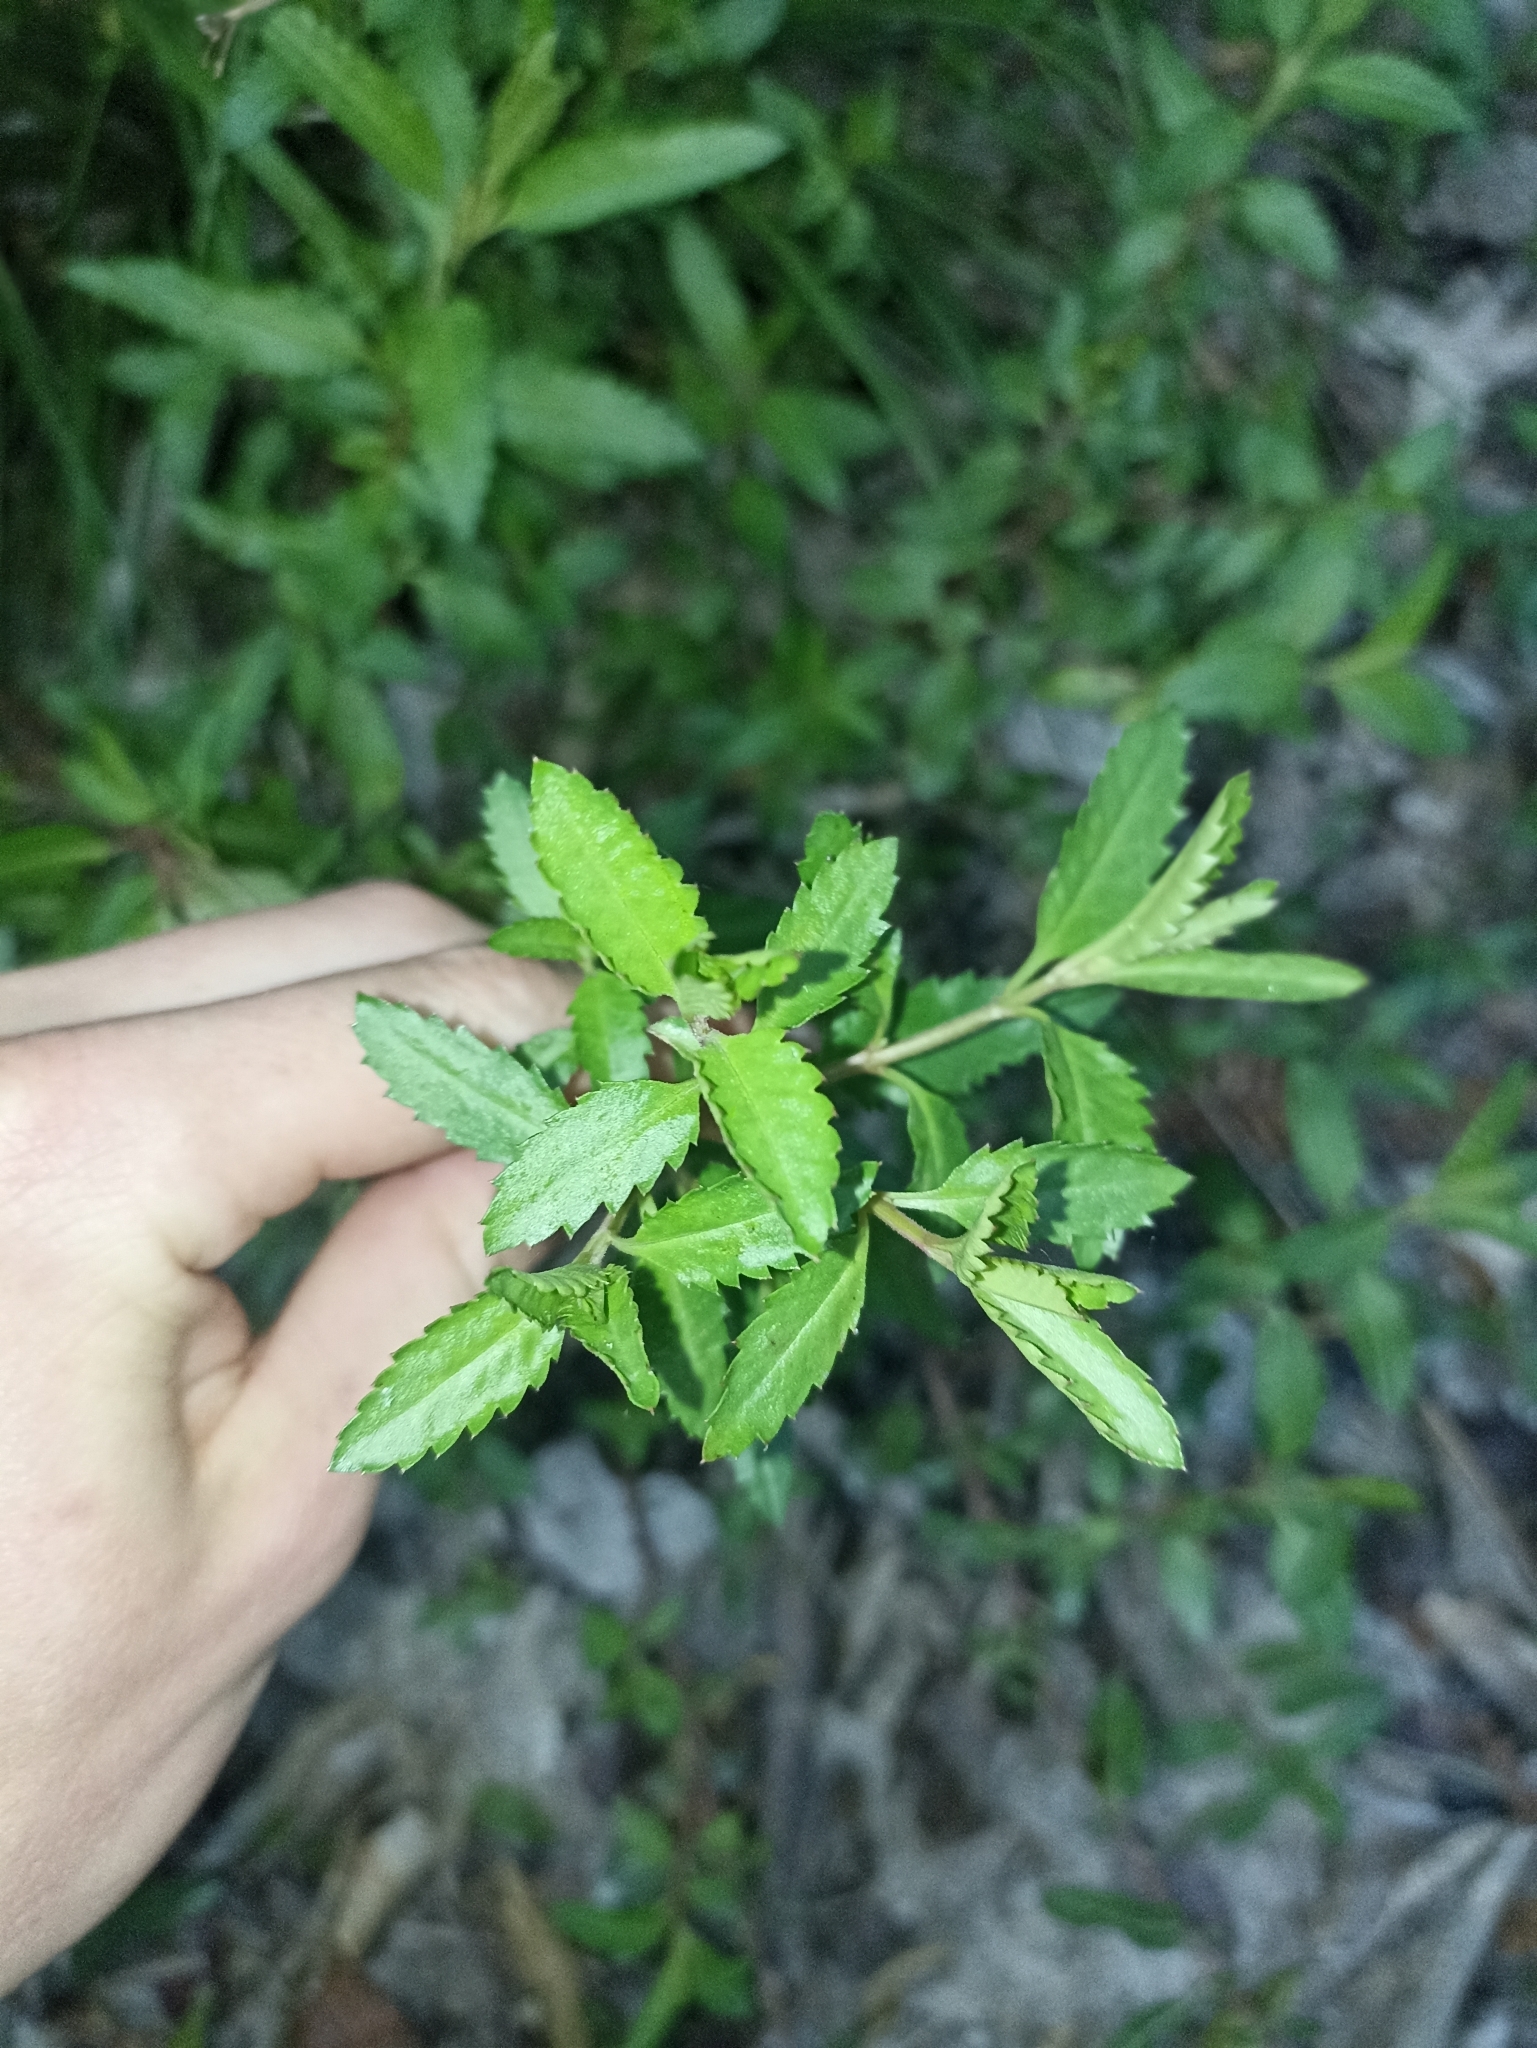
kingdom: Plantae
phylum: Tracheophyta
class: Magnoliopsida
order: Saxifragales
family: Haloragaceae
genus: Haloragis
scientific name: Haloragis erecta
